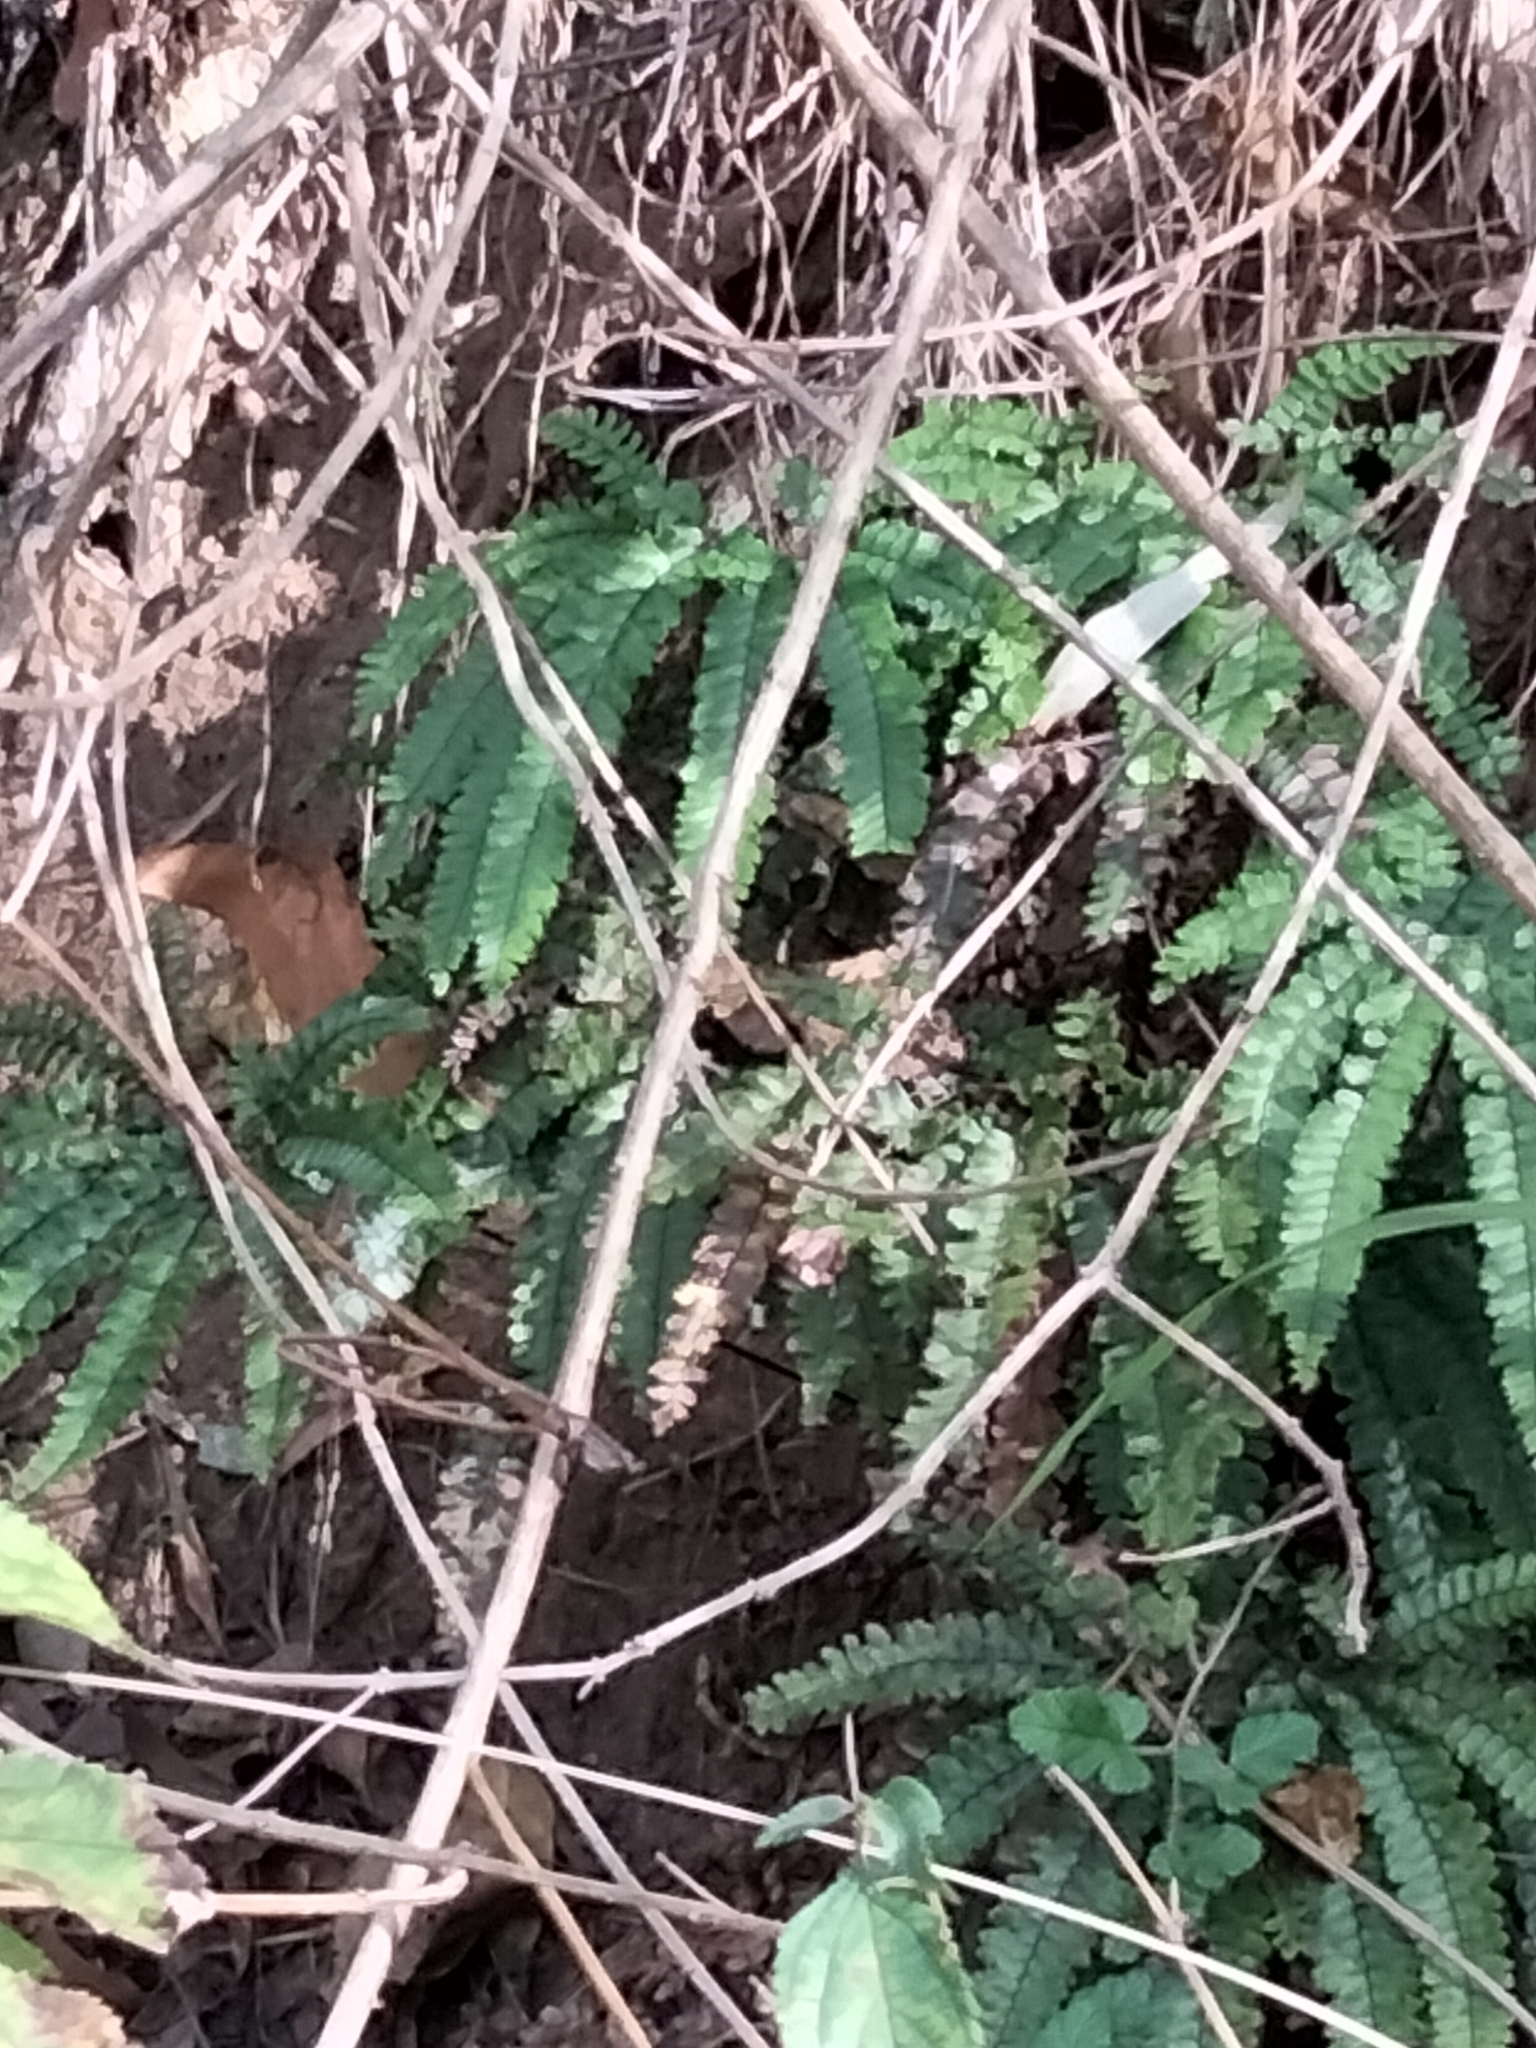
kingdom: Plantae
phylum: Tracheophyta
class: Polypodiopsida
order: Polypodiales
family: Pteridaceae
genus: Adiantum
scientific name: Adiantum hispidulum
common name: Rough maidenhair
